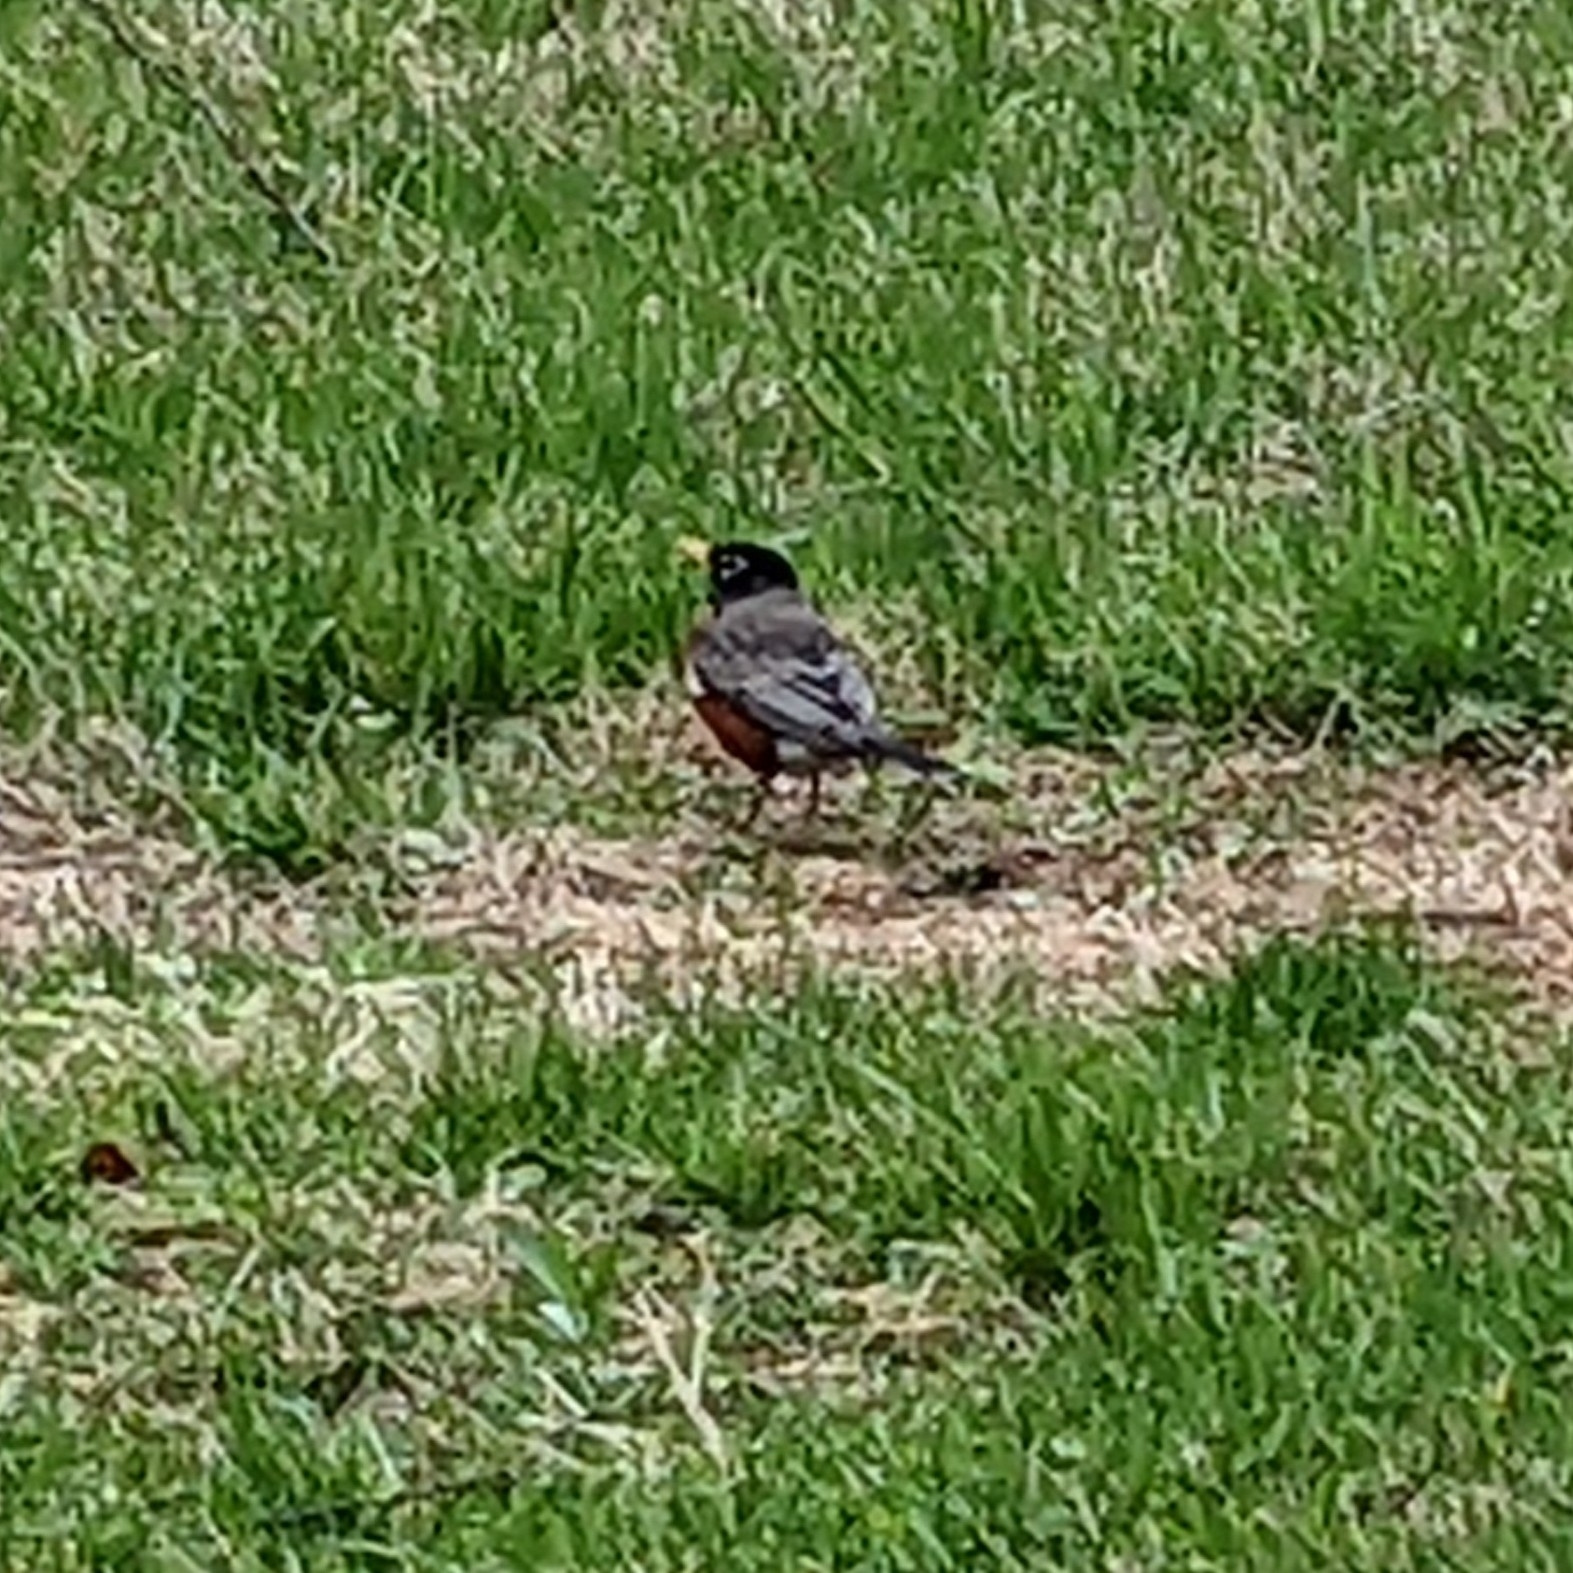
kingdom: Animalia
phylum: Chordata
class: Aves
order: Passeriformes
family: Turdidae
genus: Turdus
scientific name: Turdus migratorius
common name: American robin
